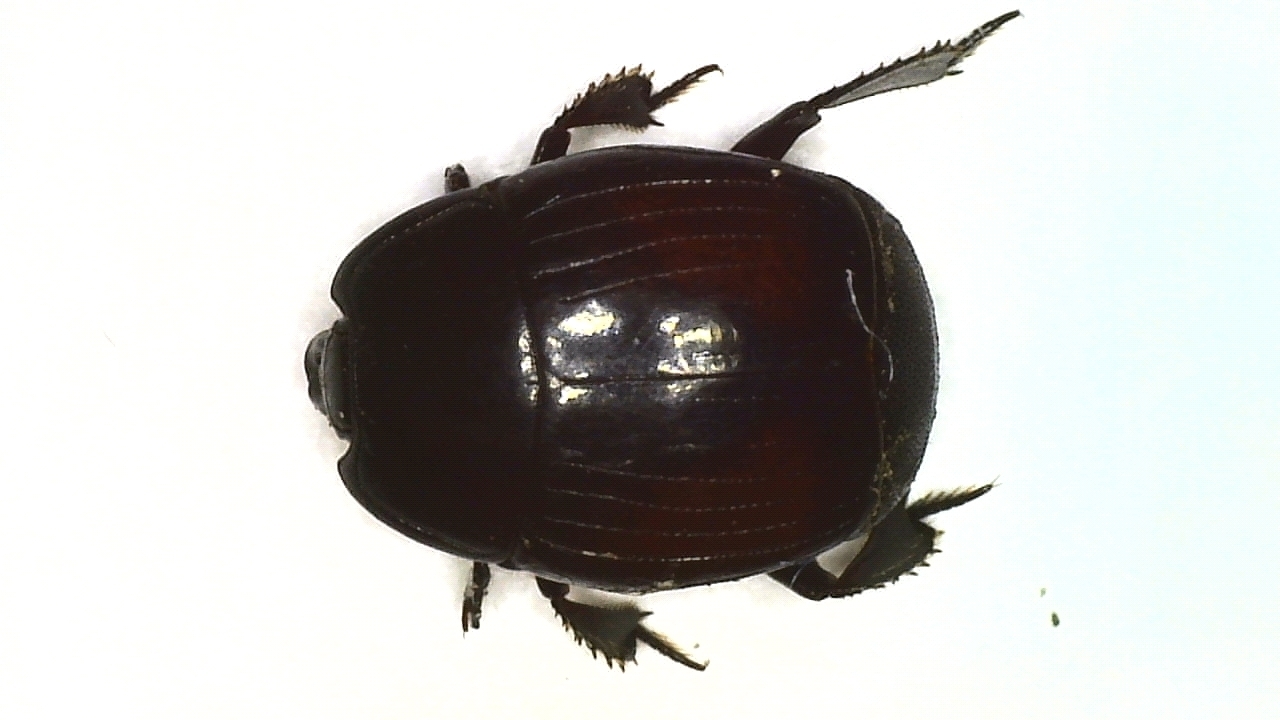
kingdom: Animalia
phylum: Arthropoda
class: Insecta
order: Coleoptera
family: Histeridae
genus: Margarinotus
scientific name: Margarinotus purpurascens
